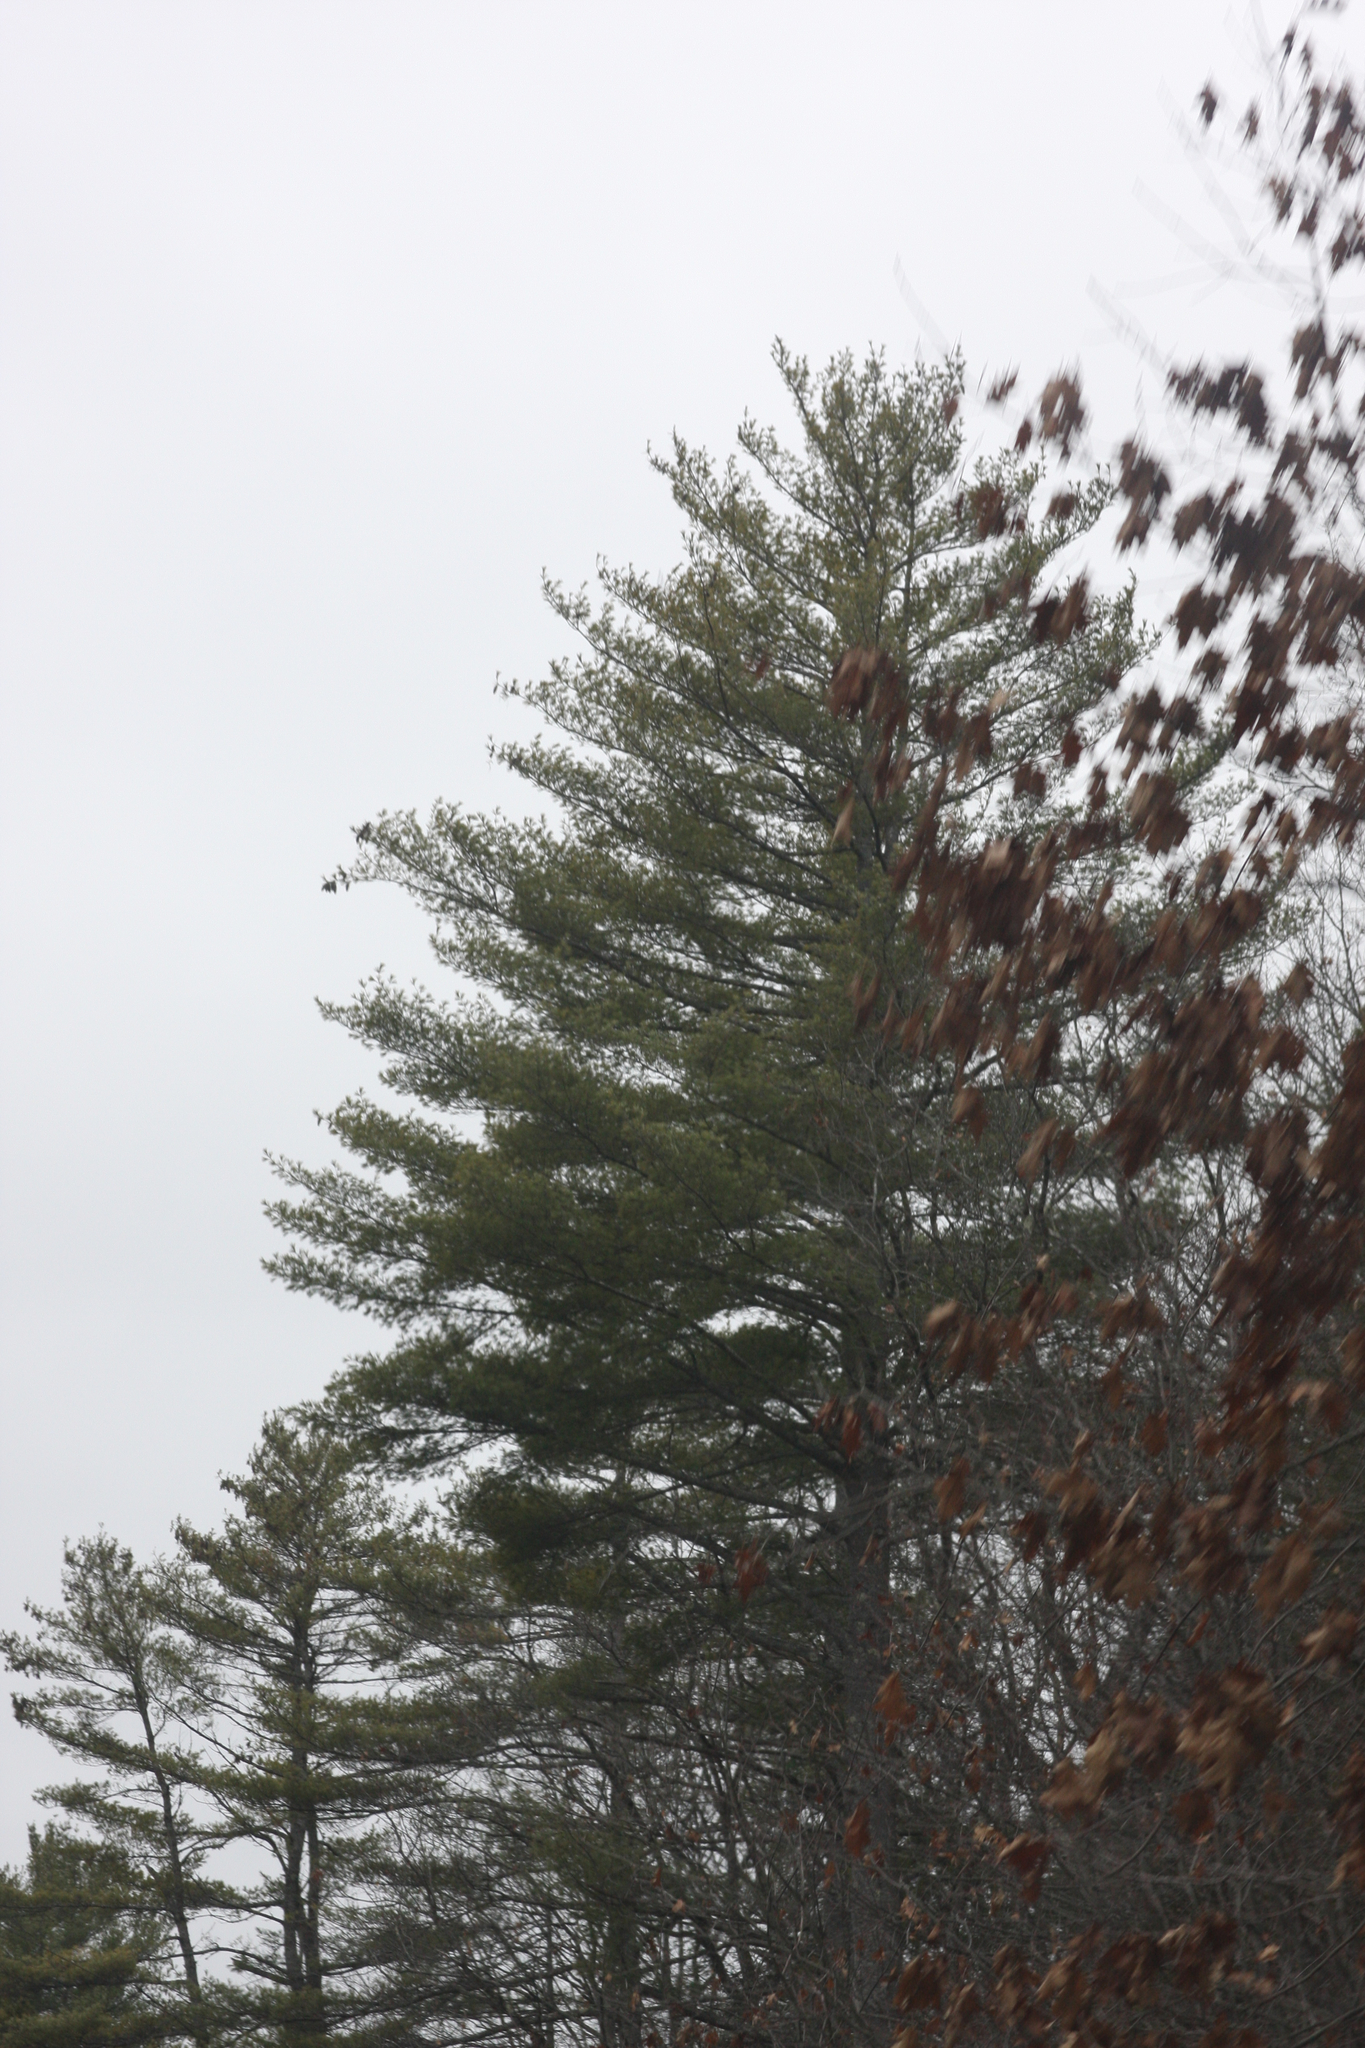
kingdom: Plantae
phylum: Tracheophyta
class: Pinopsida
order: Pinales
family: Pinaceae
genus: Pinus
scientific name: Pinus strobus
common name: Weymouth pine
